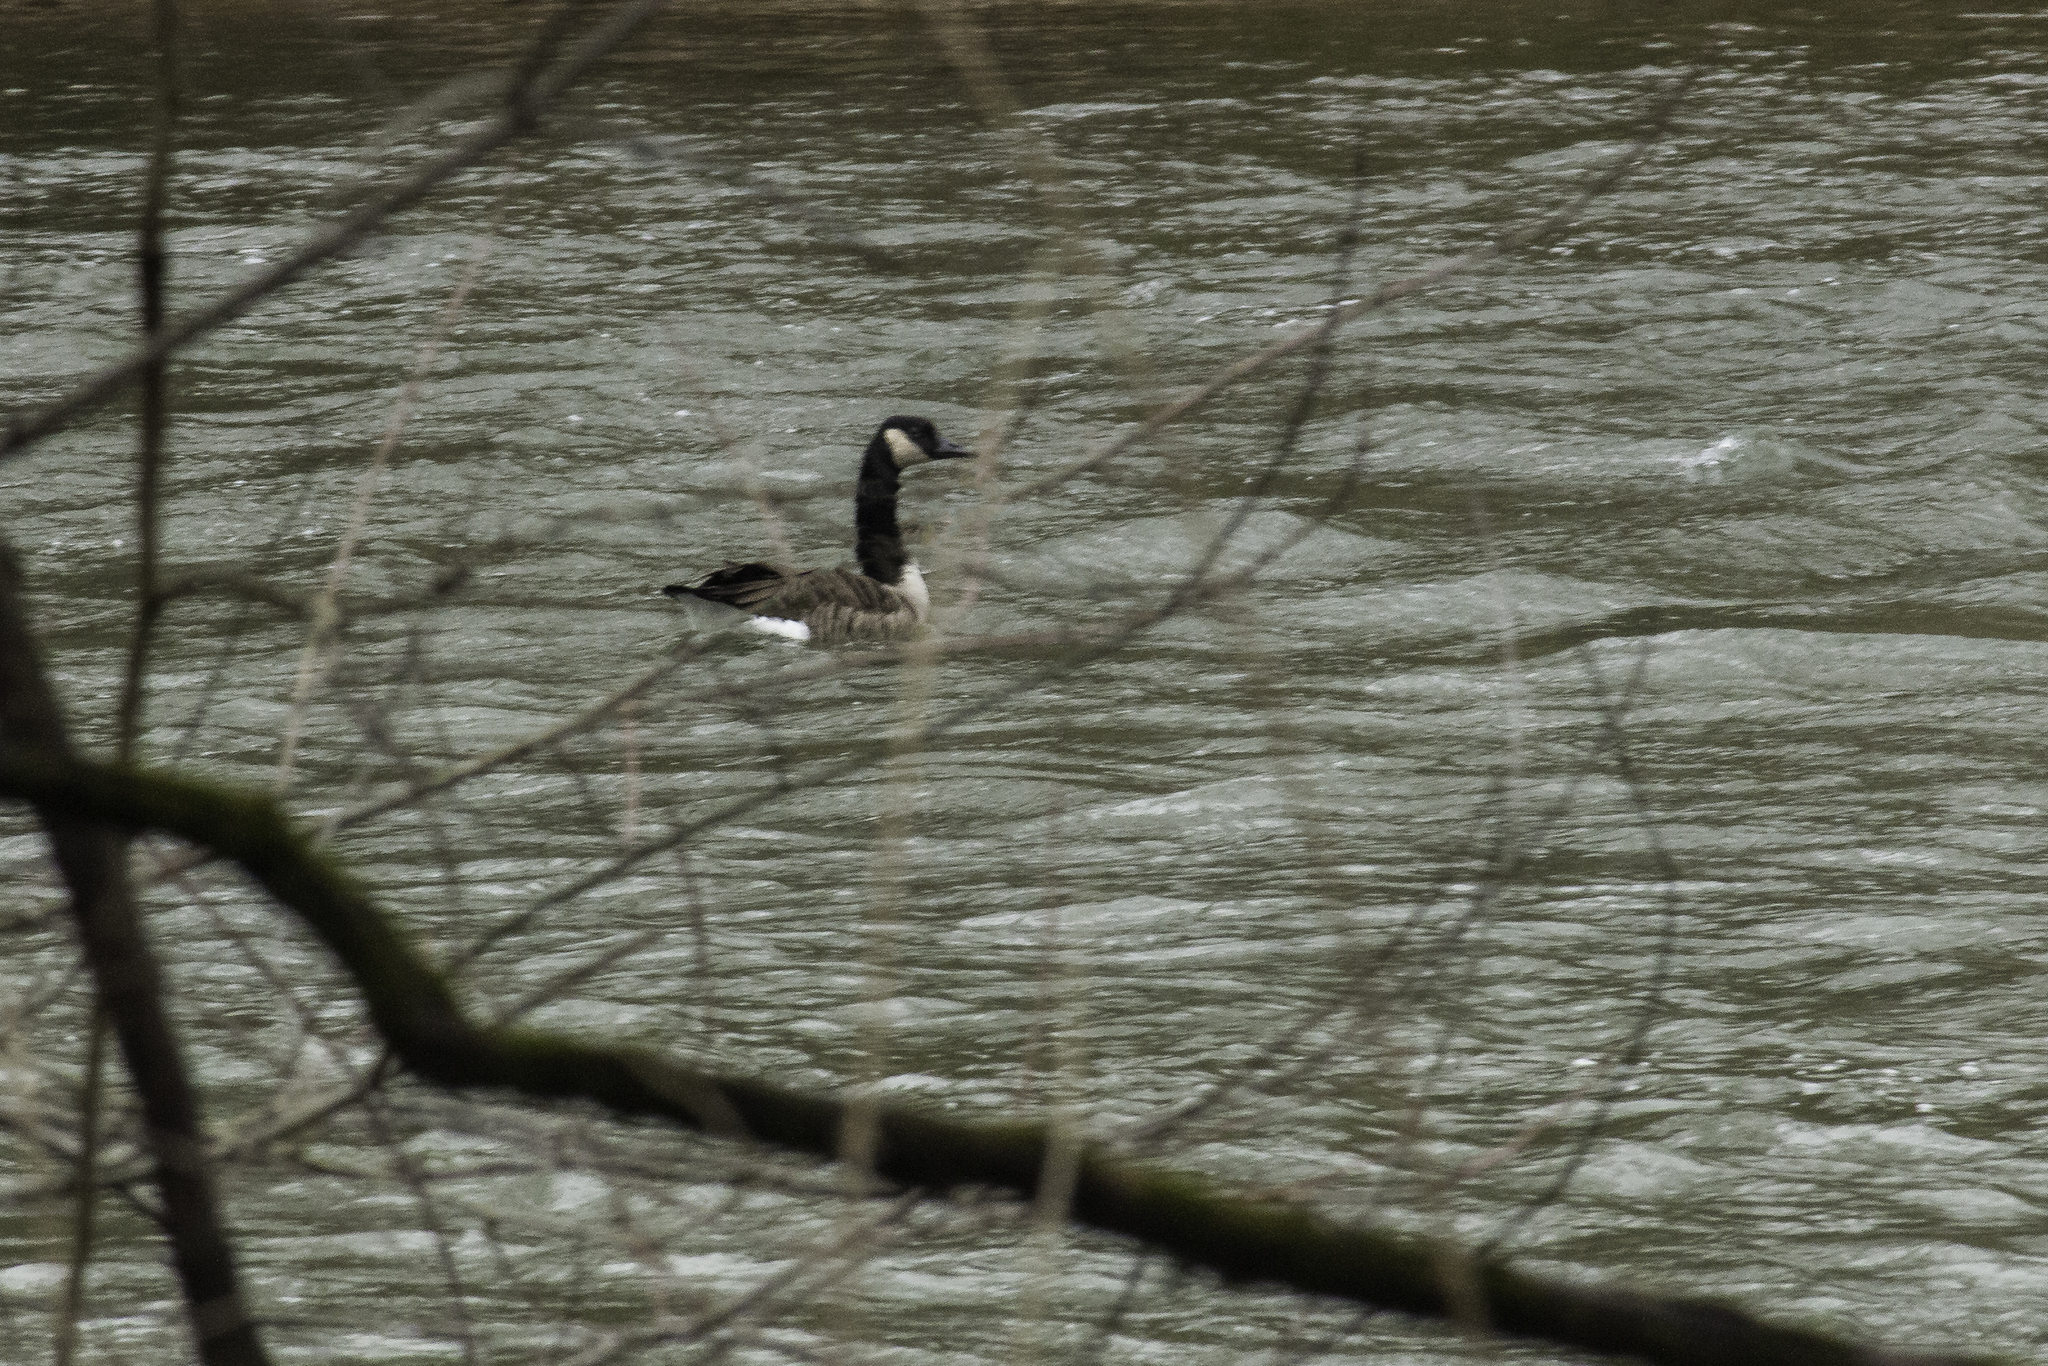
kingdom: Animalia
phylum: Chordata
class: Aves
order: Anseriformes
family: Anatidae
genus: Branta
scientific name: Branta canadensis
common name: Canada goose
